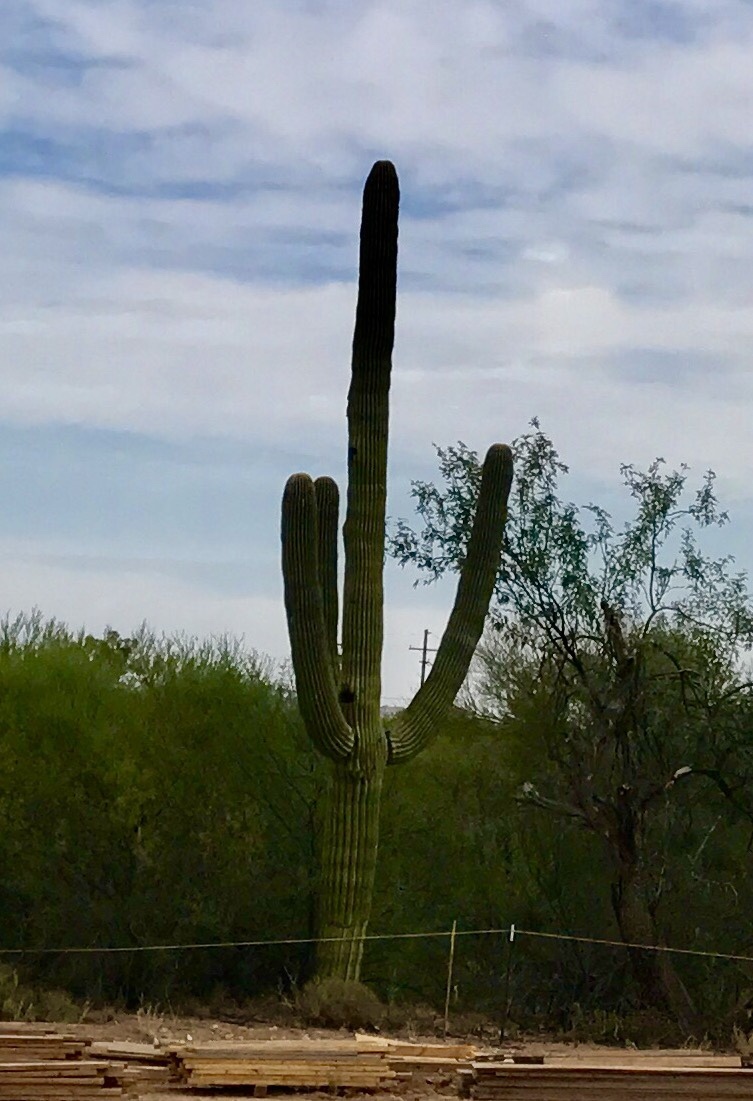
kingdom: Plantae
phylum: Tracheophyta
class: Magnoliopsida
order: Caryophyllales
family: Cactaceae
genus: Carnegiea
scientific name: Carnegiea gigantea
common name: Saguaro
